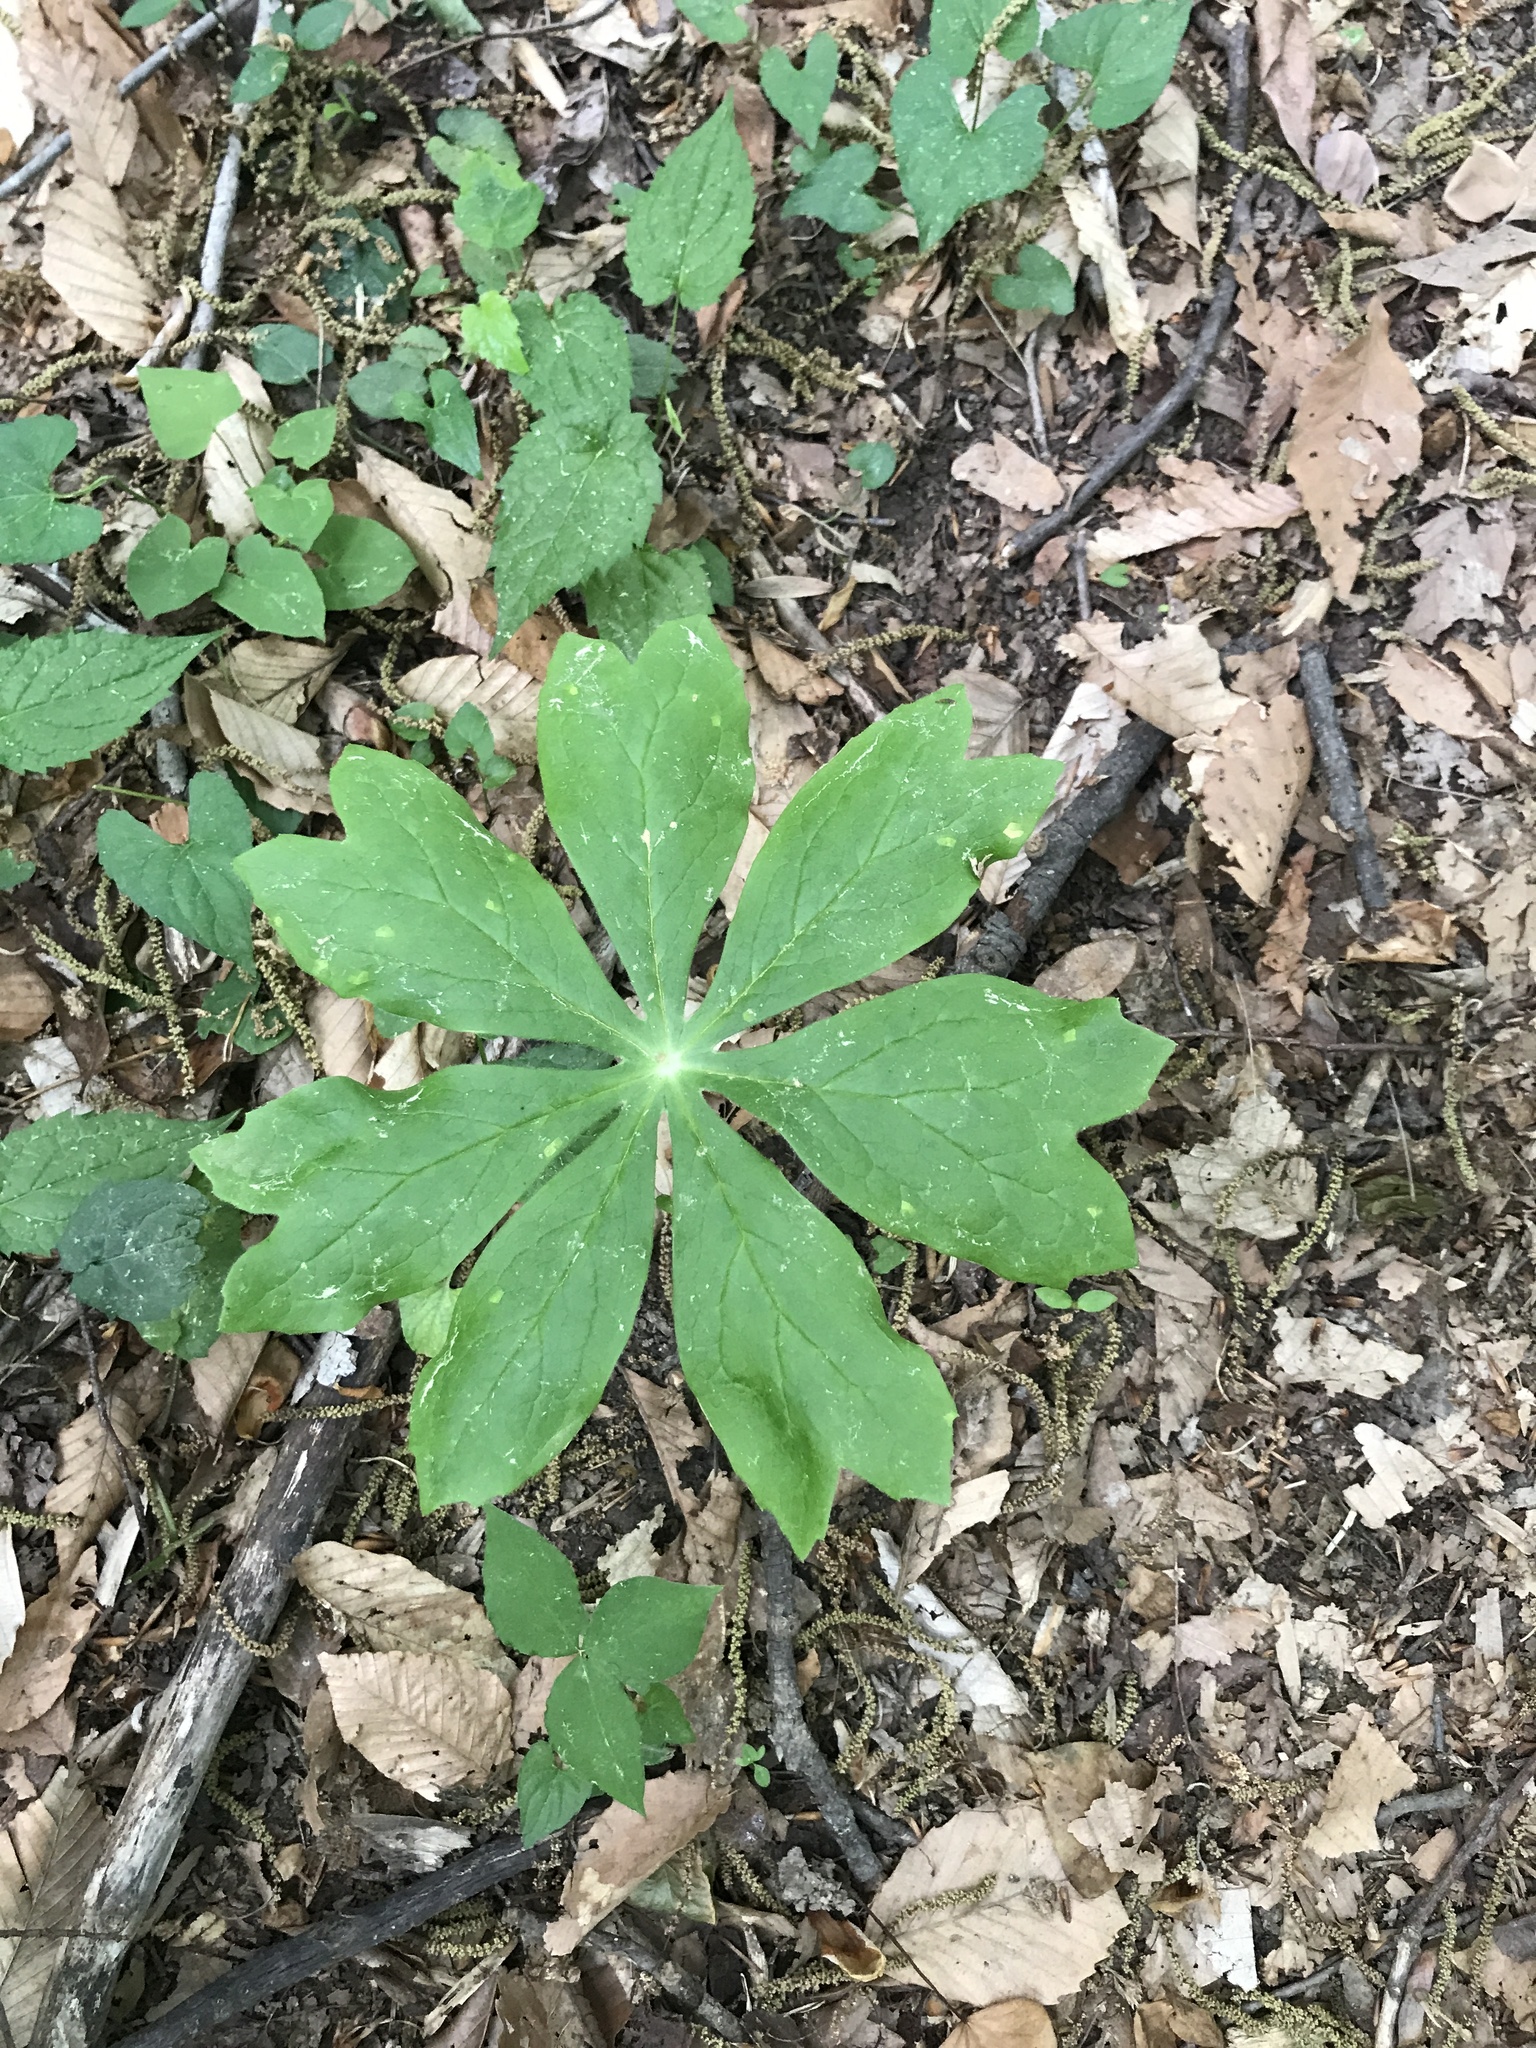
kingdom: Plantae
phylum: Tracheophyta
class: Magnoliopsida
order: Ranunculales
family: Berberidaceae
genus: Podophyllum
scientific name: Podophyllum peltatum
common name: Wild mandrake
